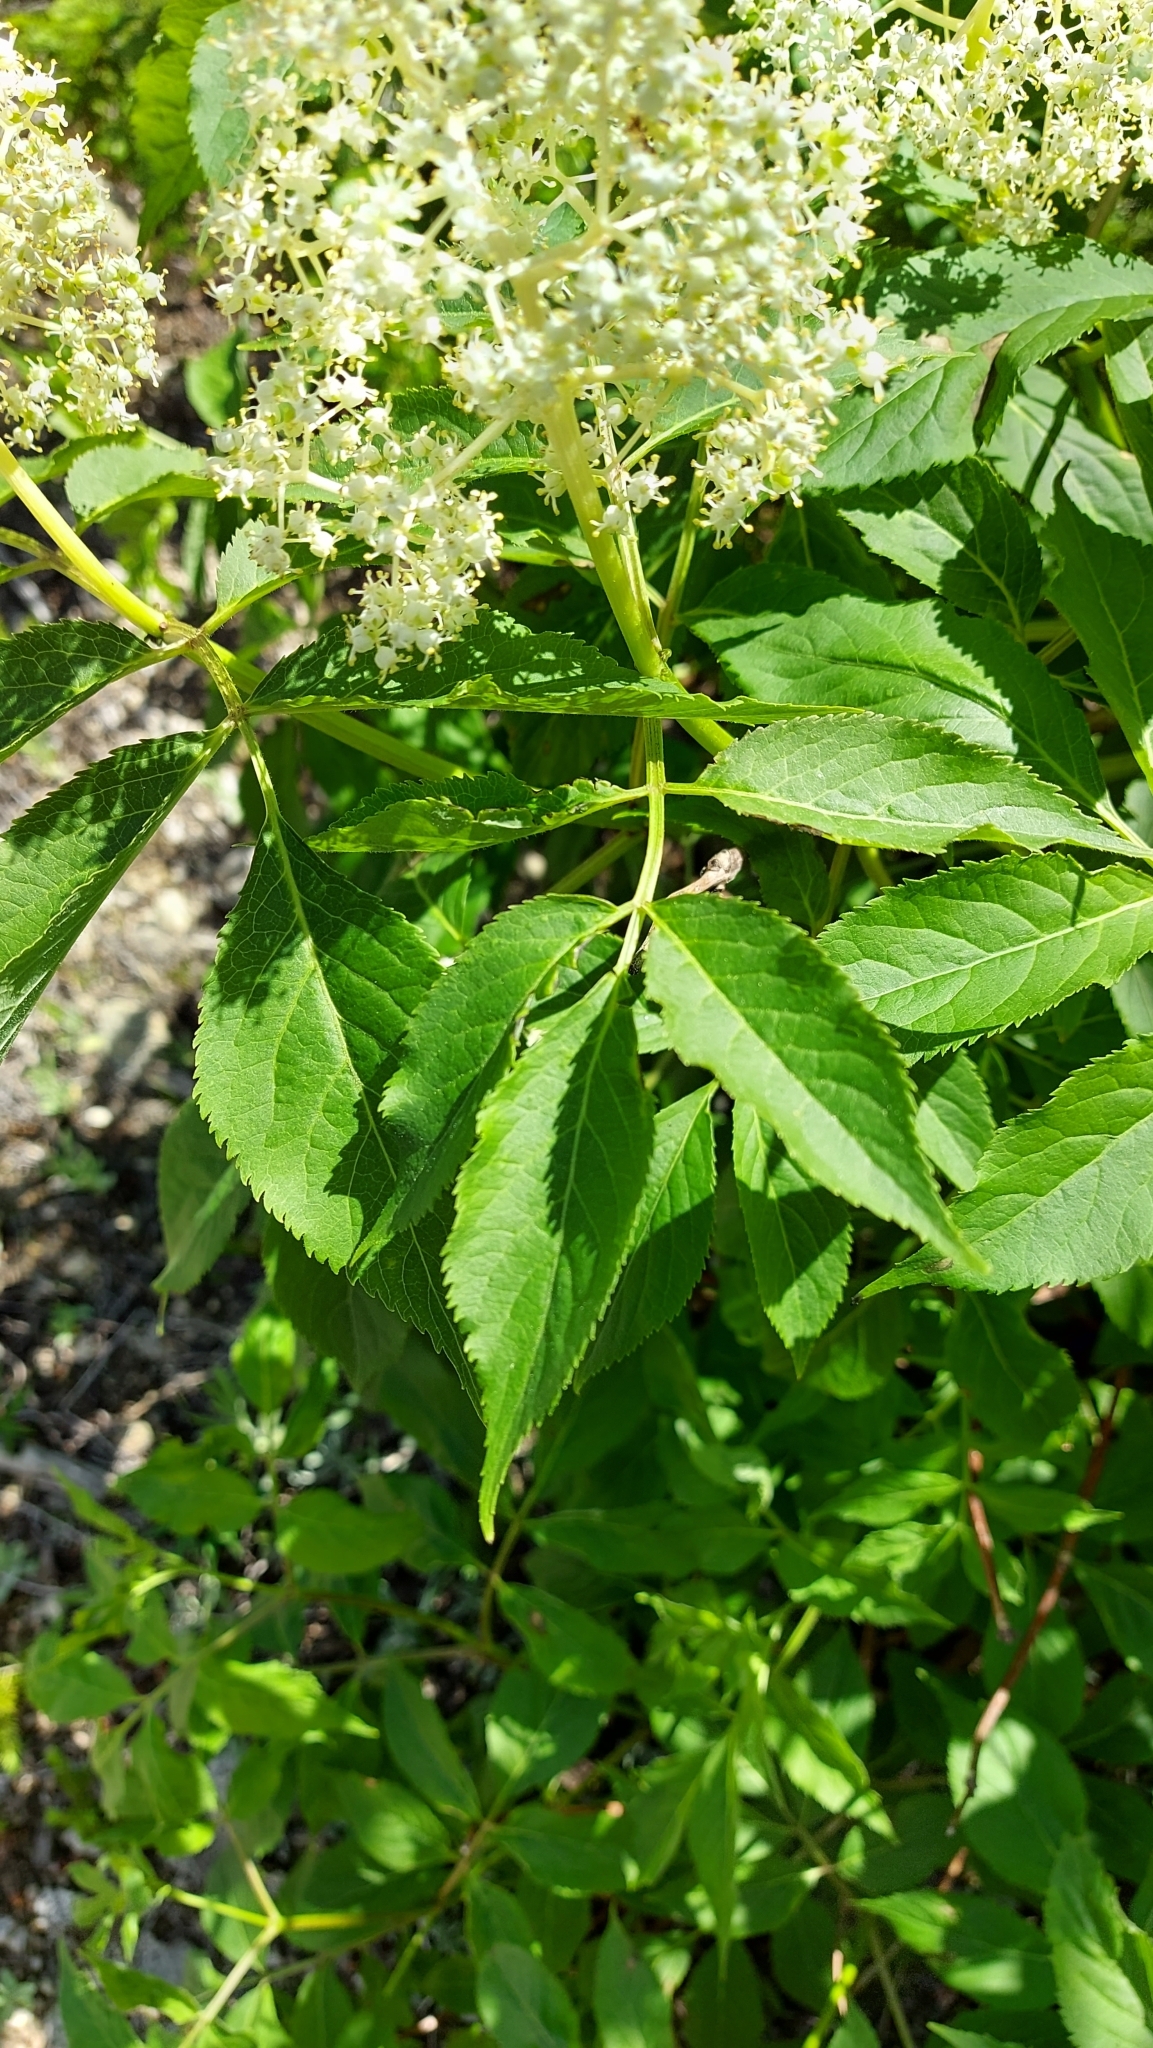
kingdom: Plantae
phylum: Tracheophyta
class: Magnoliopsida
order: Dipsacales
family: Viburnaceae
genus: Sambucus
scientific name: Sambucus racemosa
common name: Red-berried elder
